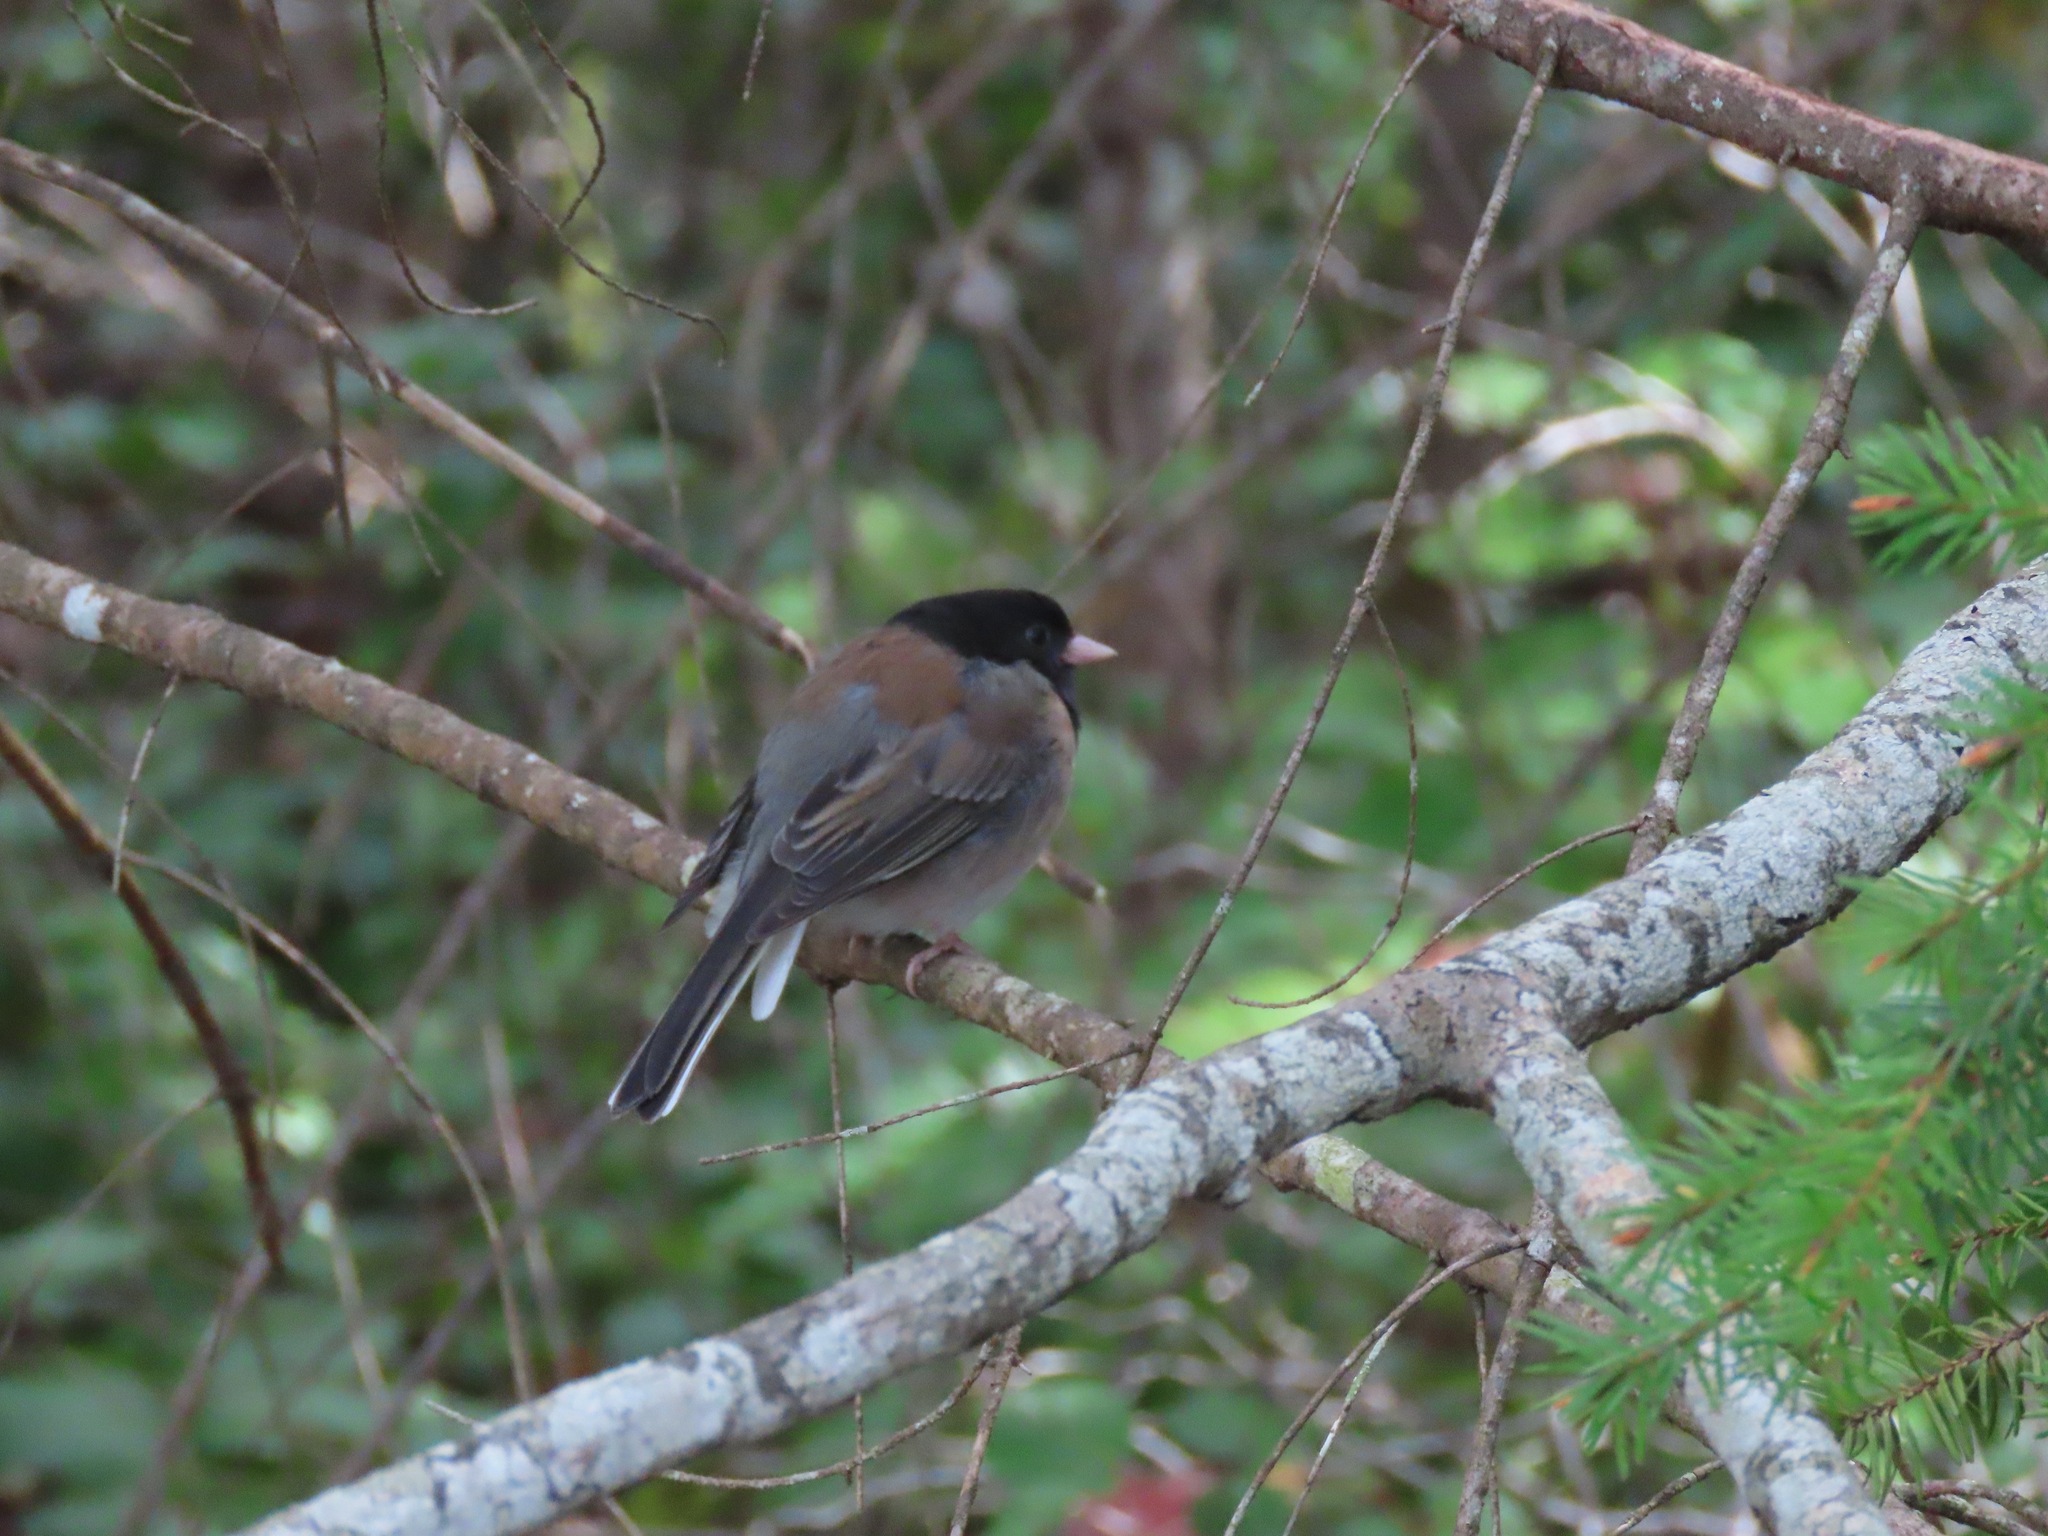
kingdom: Animalia
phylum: Chordata
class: Aves
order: Passeriformes
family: Passerellidae
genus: Junco
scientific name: Junco hyemalis
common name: Dark-eyed junco
